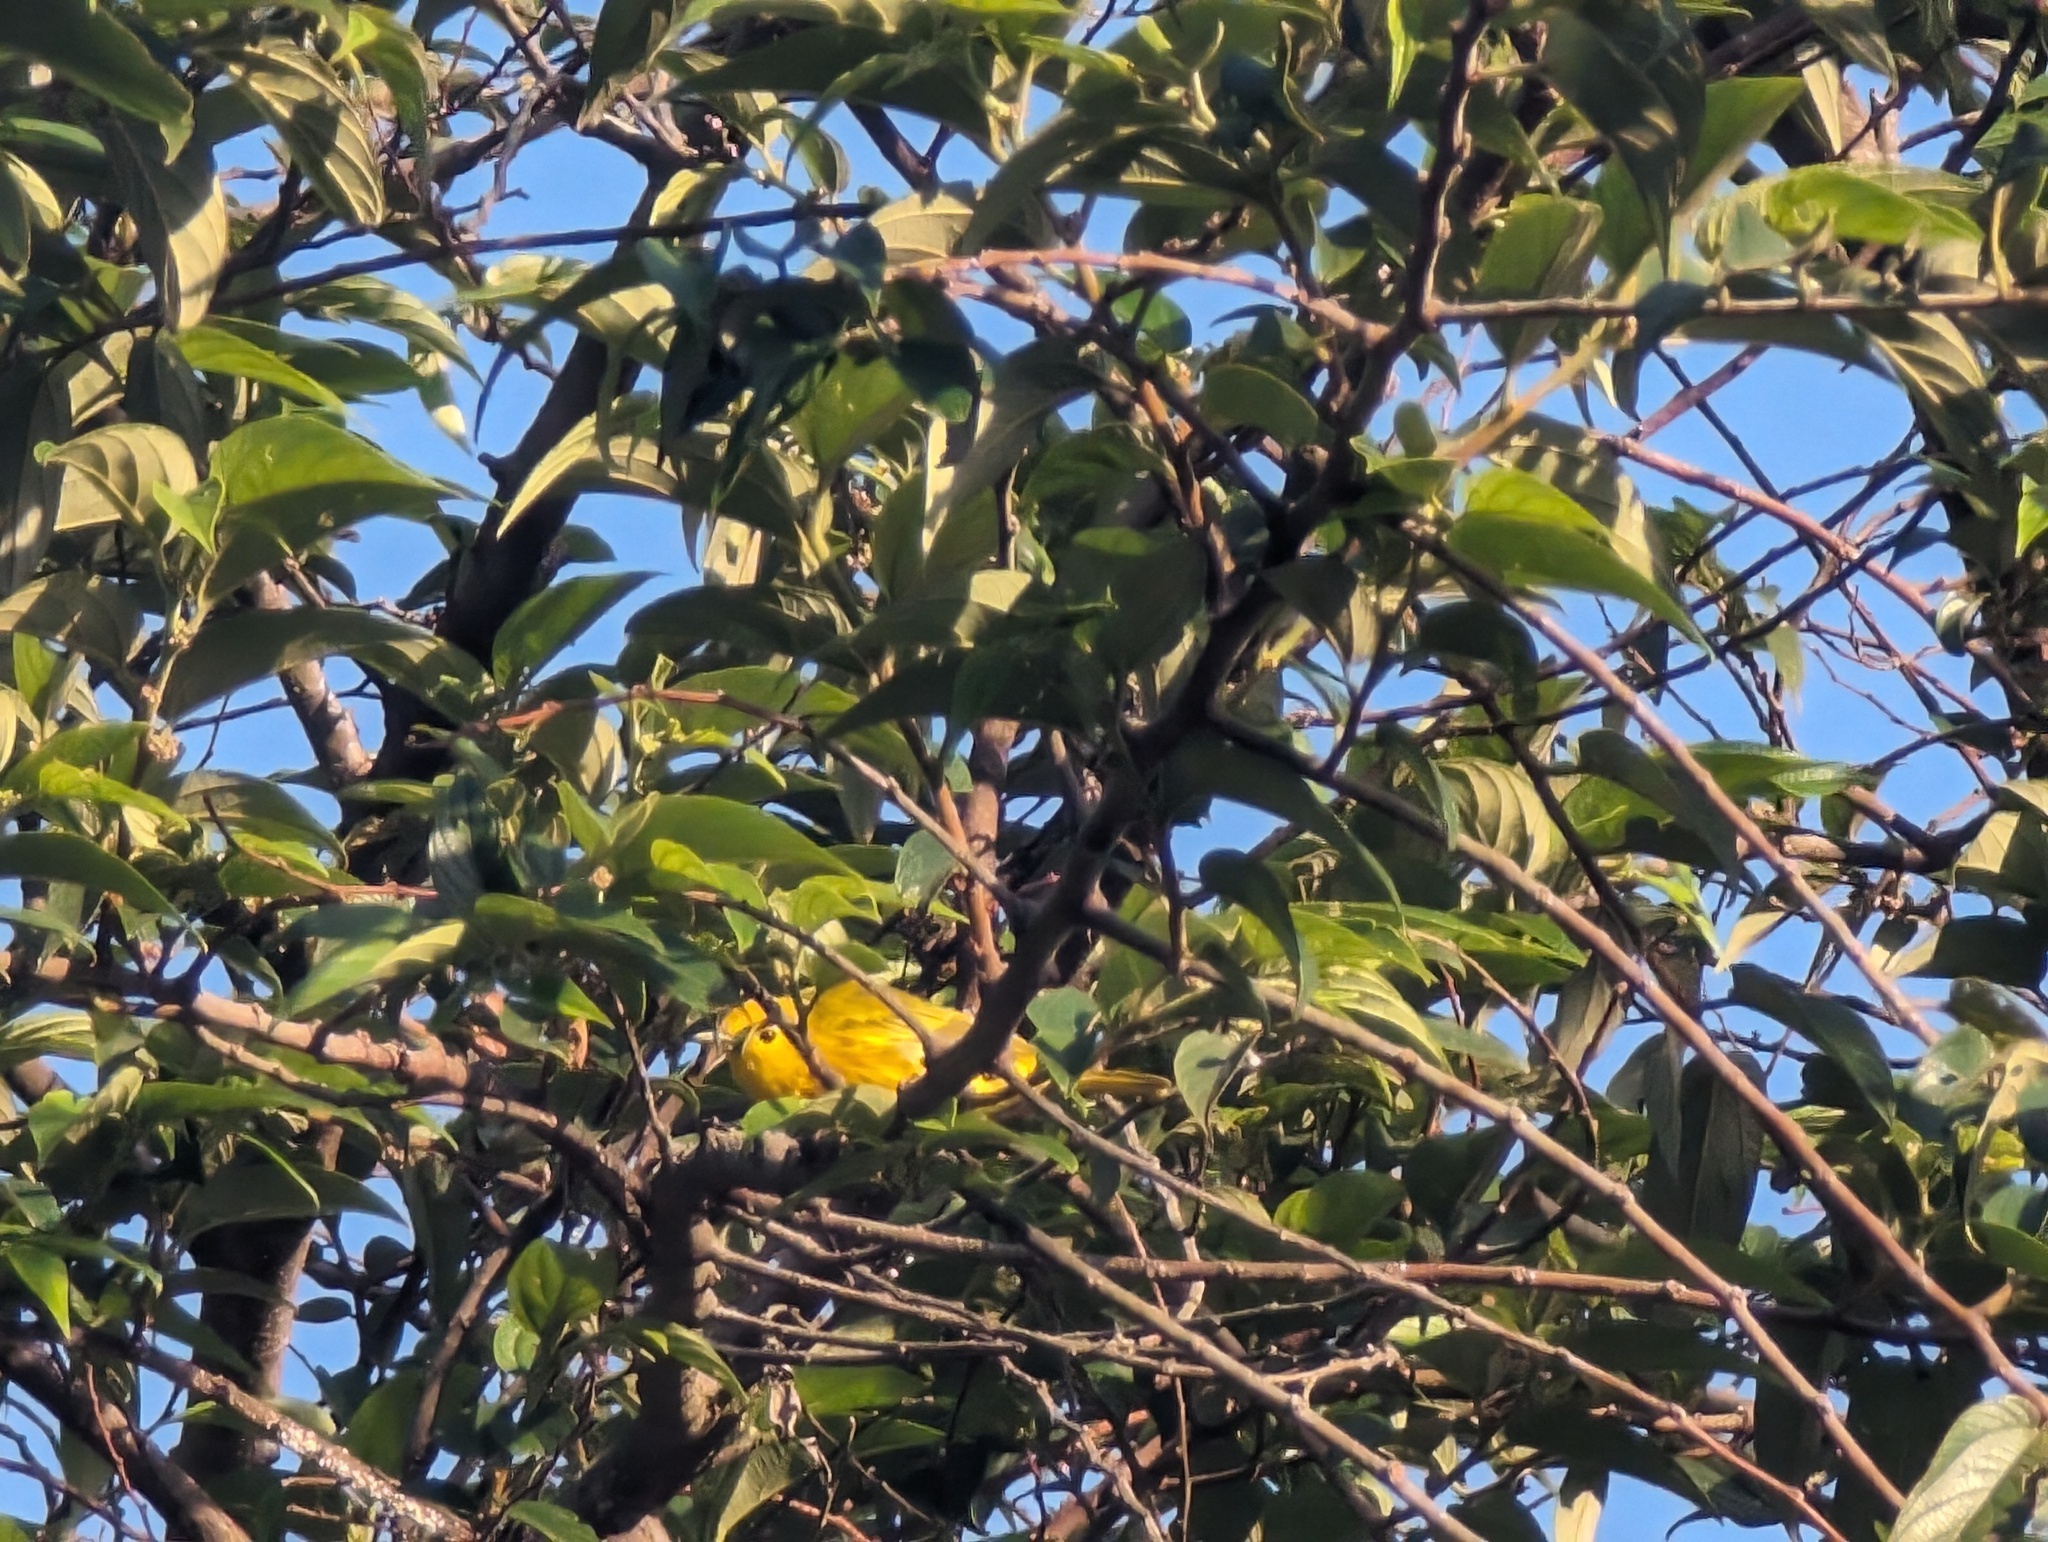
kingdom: Animalia
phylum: Chordata
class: Aves
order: Passeriformes
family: Parulidae
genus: Setophaga
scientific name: Setophaga petechia
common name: Yellow warbler
